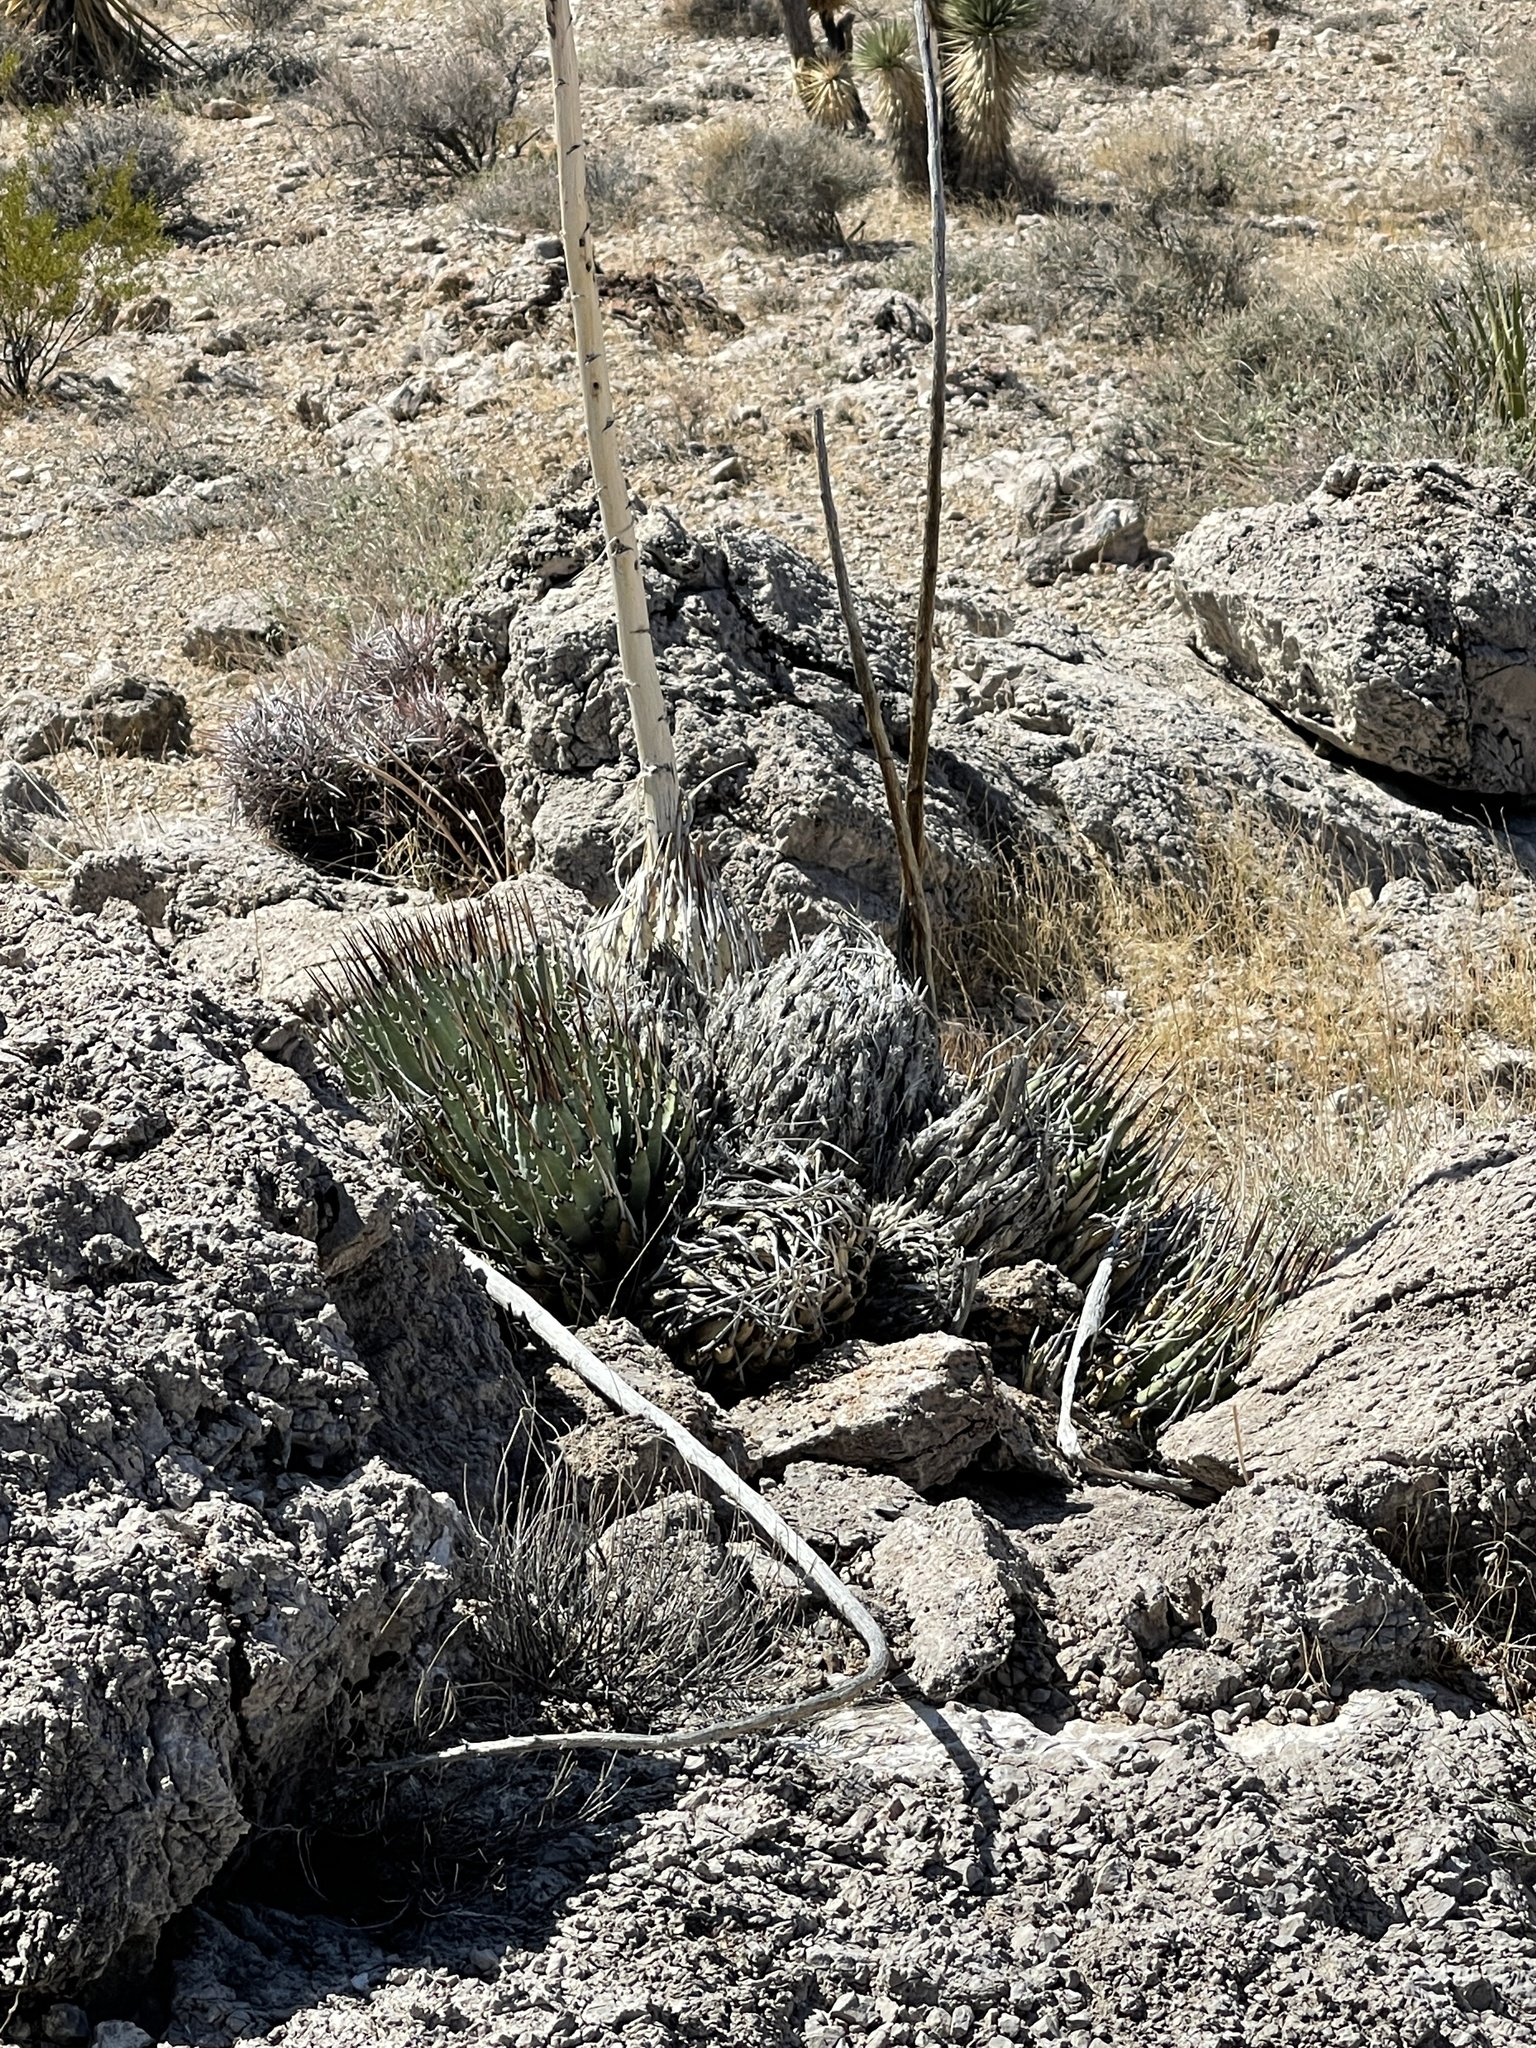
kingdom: Plantae
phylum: Tracheophyta
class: Liliopsida
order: Asparagales
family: Asparagaceae
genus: Agave
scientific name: Agave utahensis
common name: Utah agave
